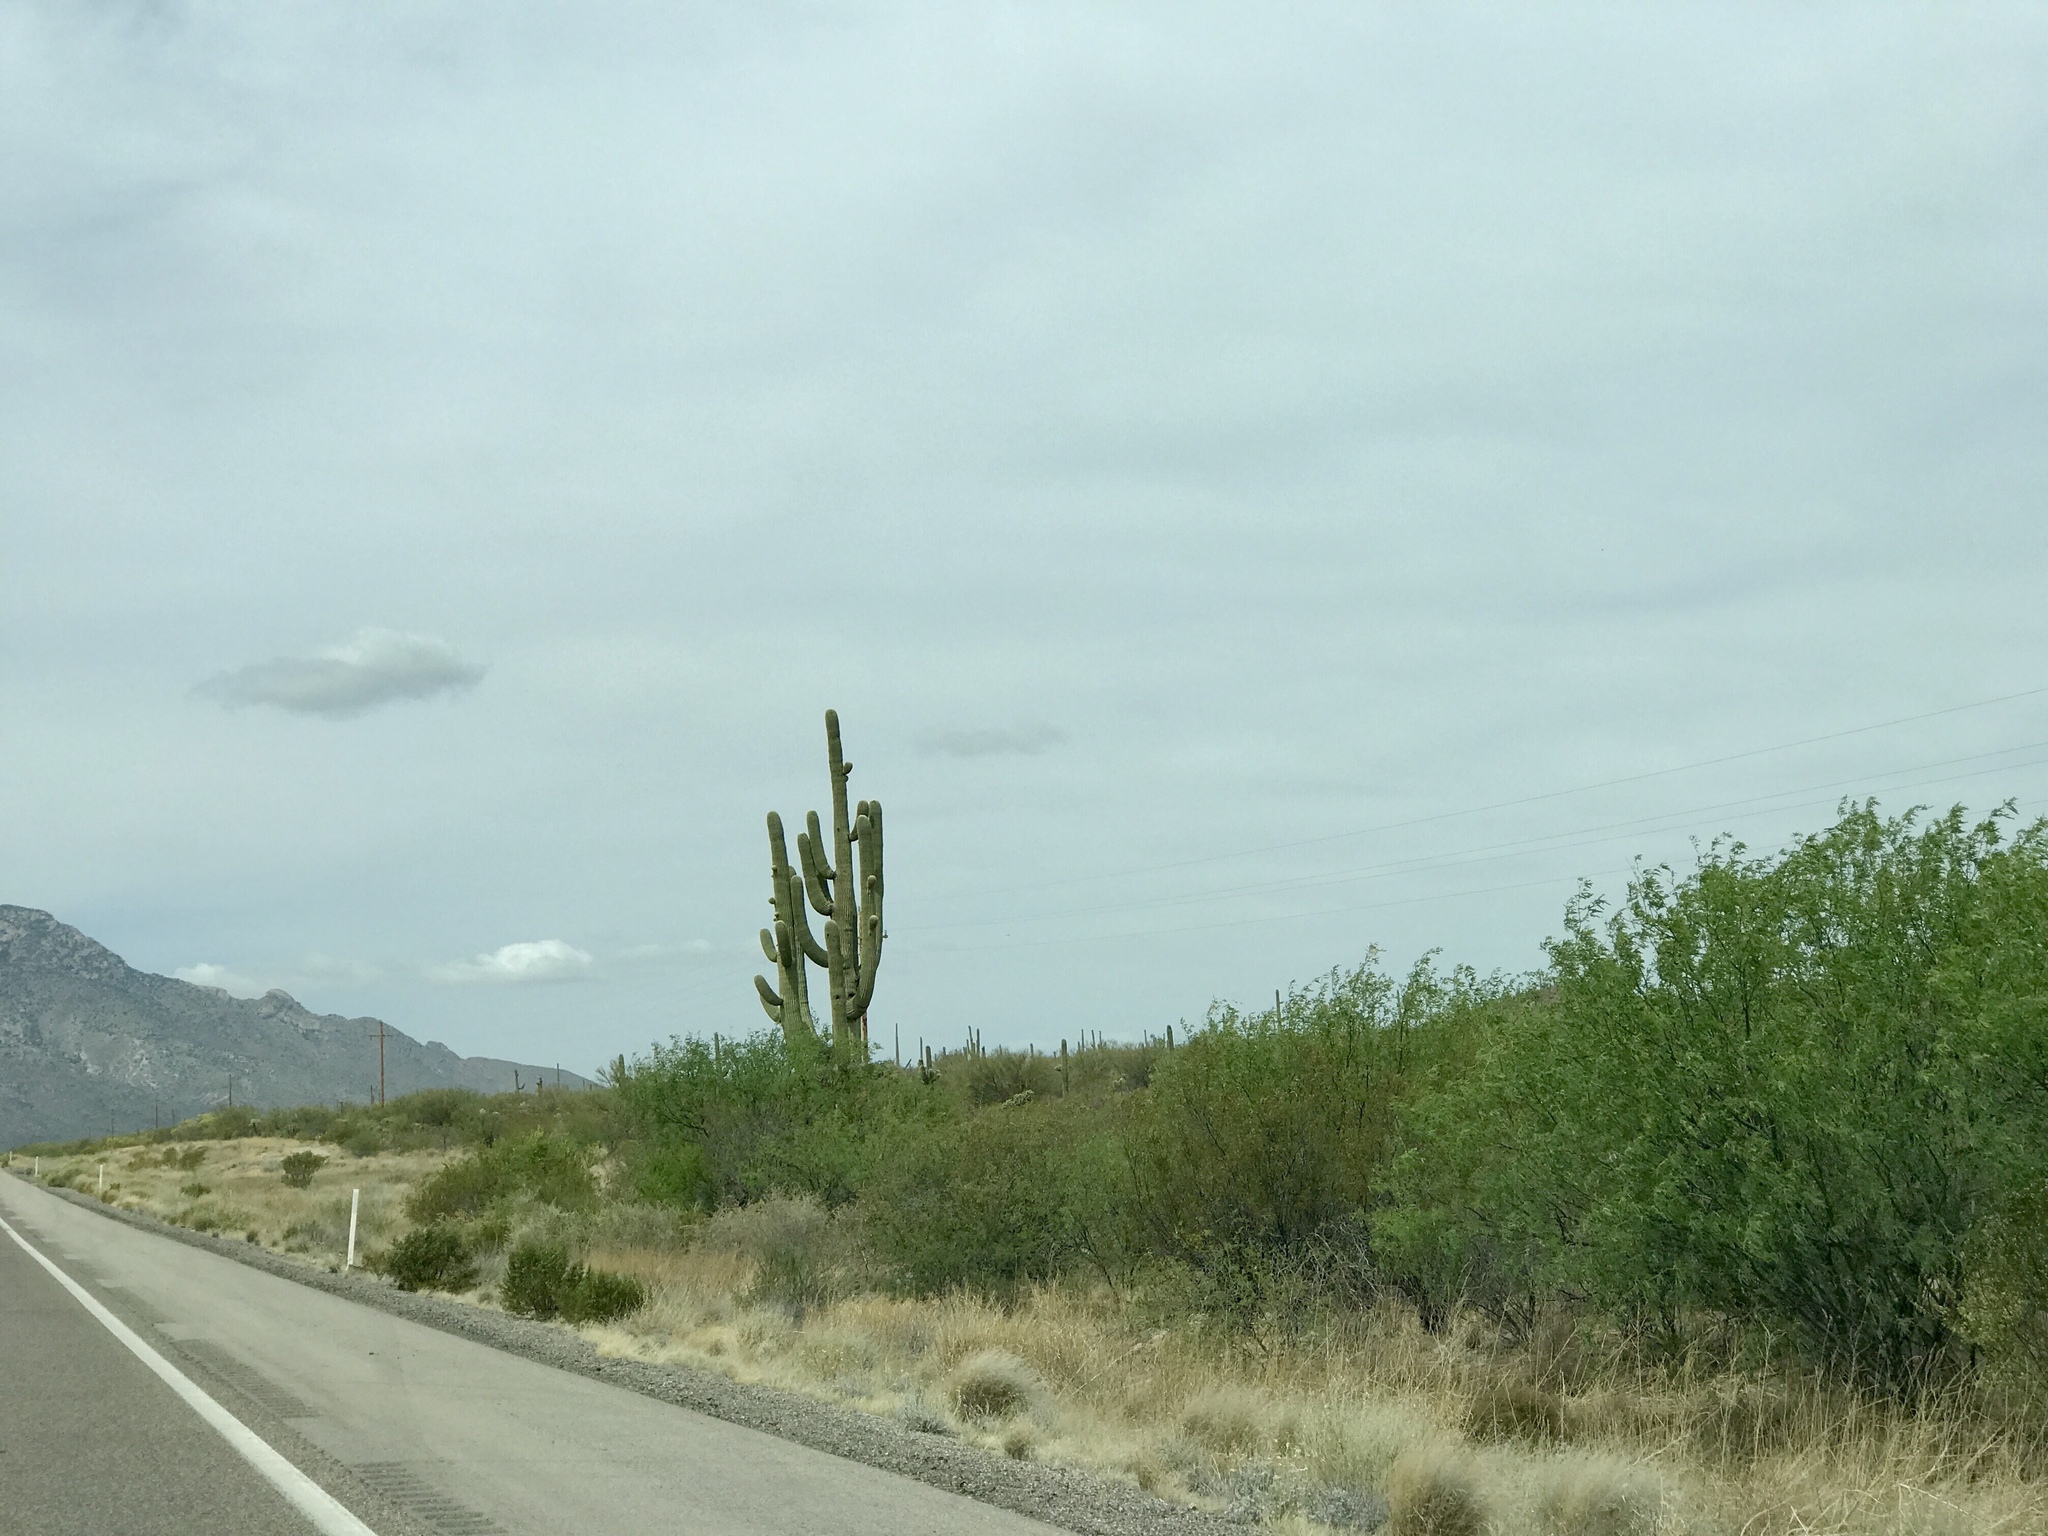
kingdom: Plantae
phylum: Tracheophyta
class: Magnoliopsida
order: Caryophyllales
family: Cactaceae
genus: Carnegiea
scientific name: Carnegiea gigantea
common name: Saguaro
